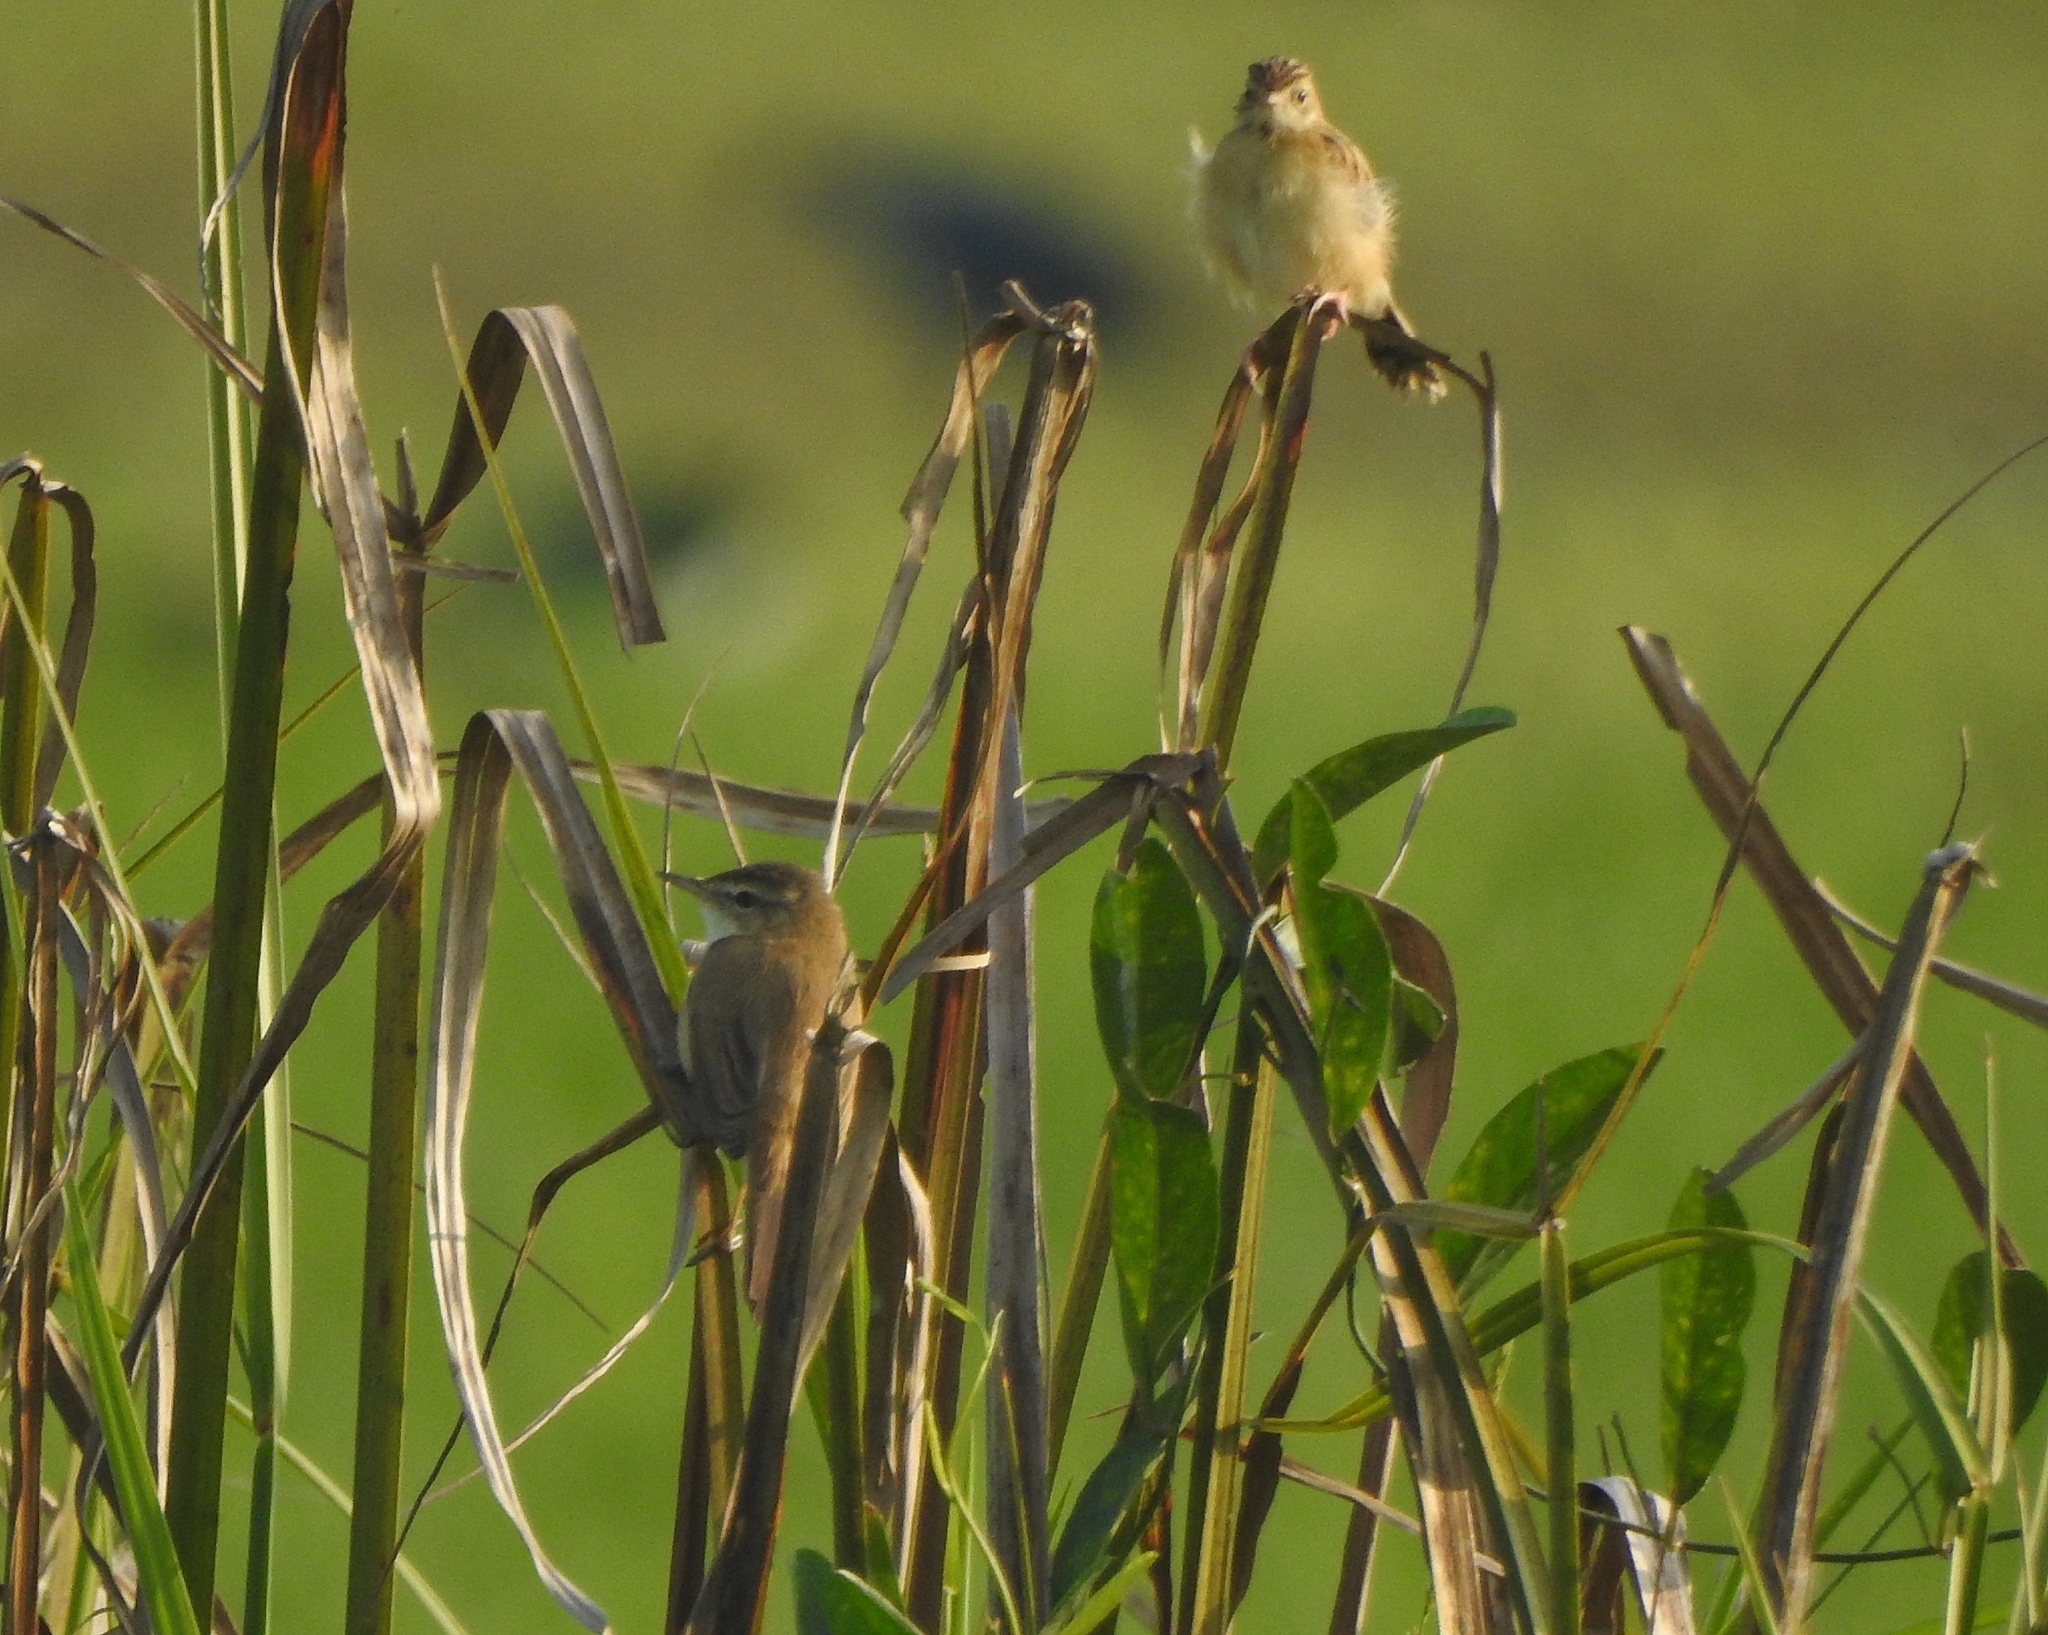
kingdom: Animalia
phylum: Chordata
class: Aves
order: Passeriformes
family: Cisticolidae
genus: Cisticola
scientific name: Cisticola juncidis
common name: Zitting cisticola
